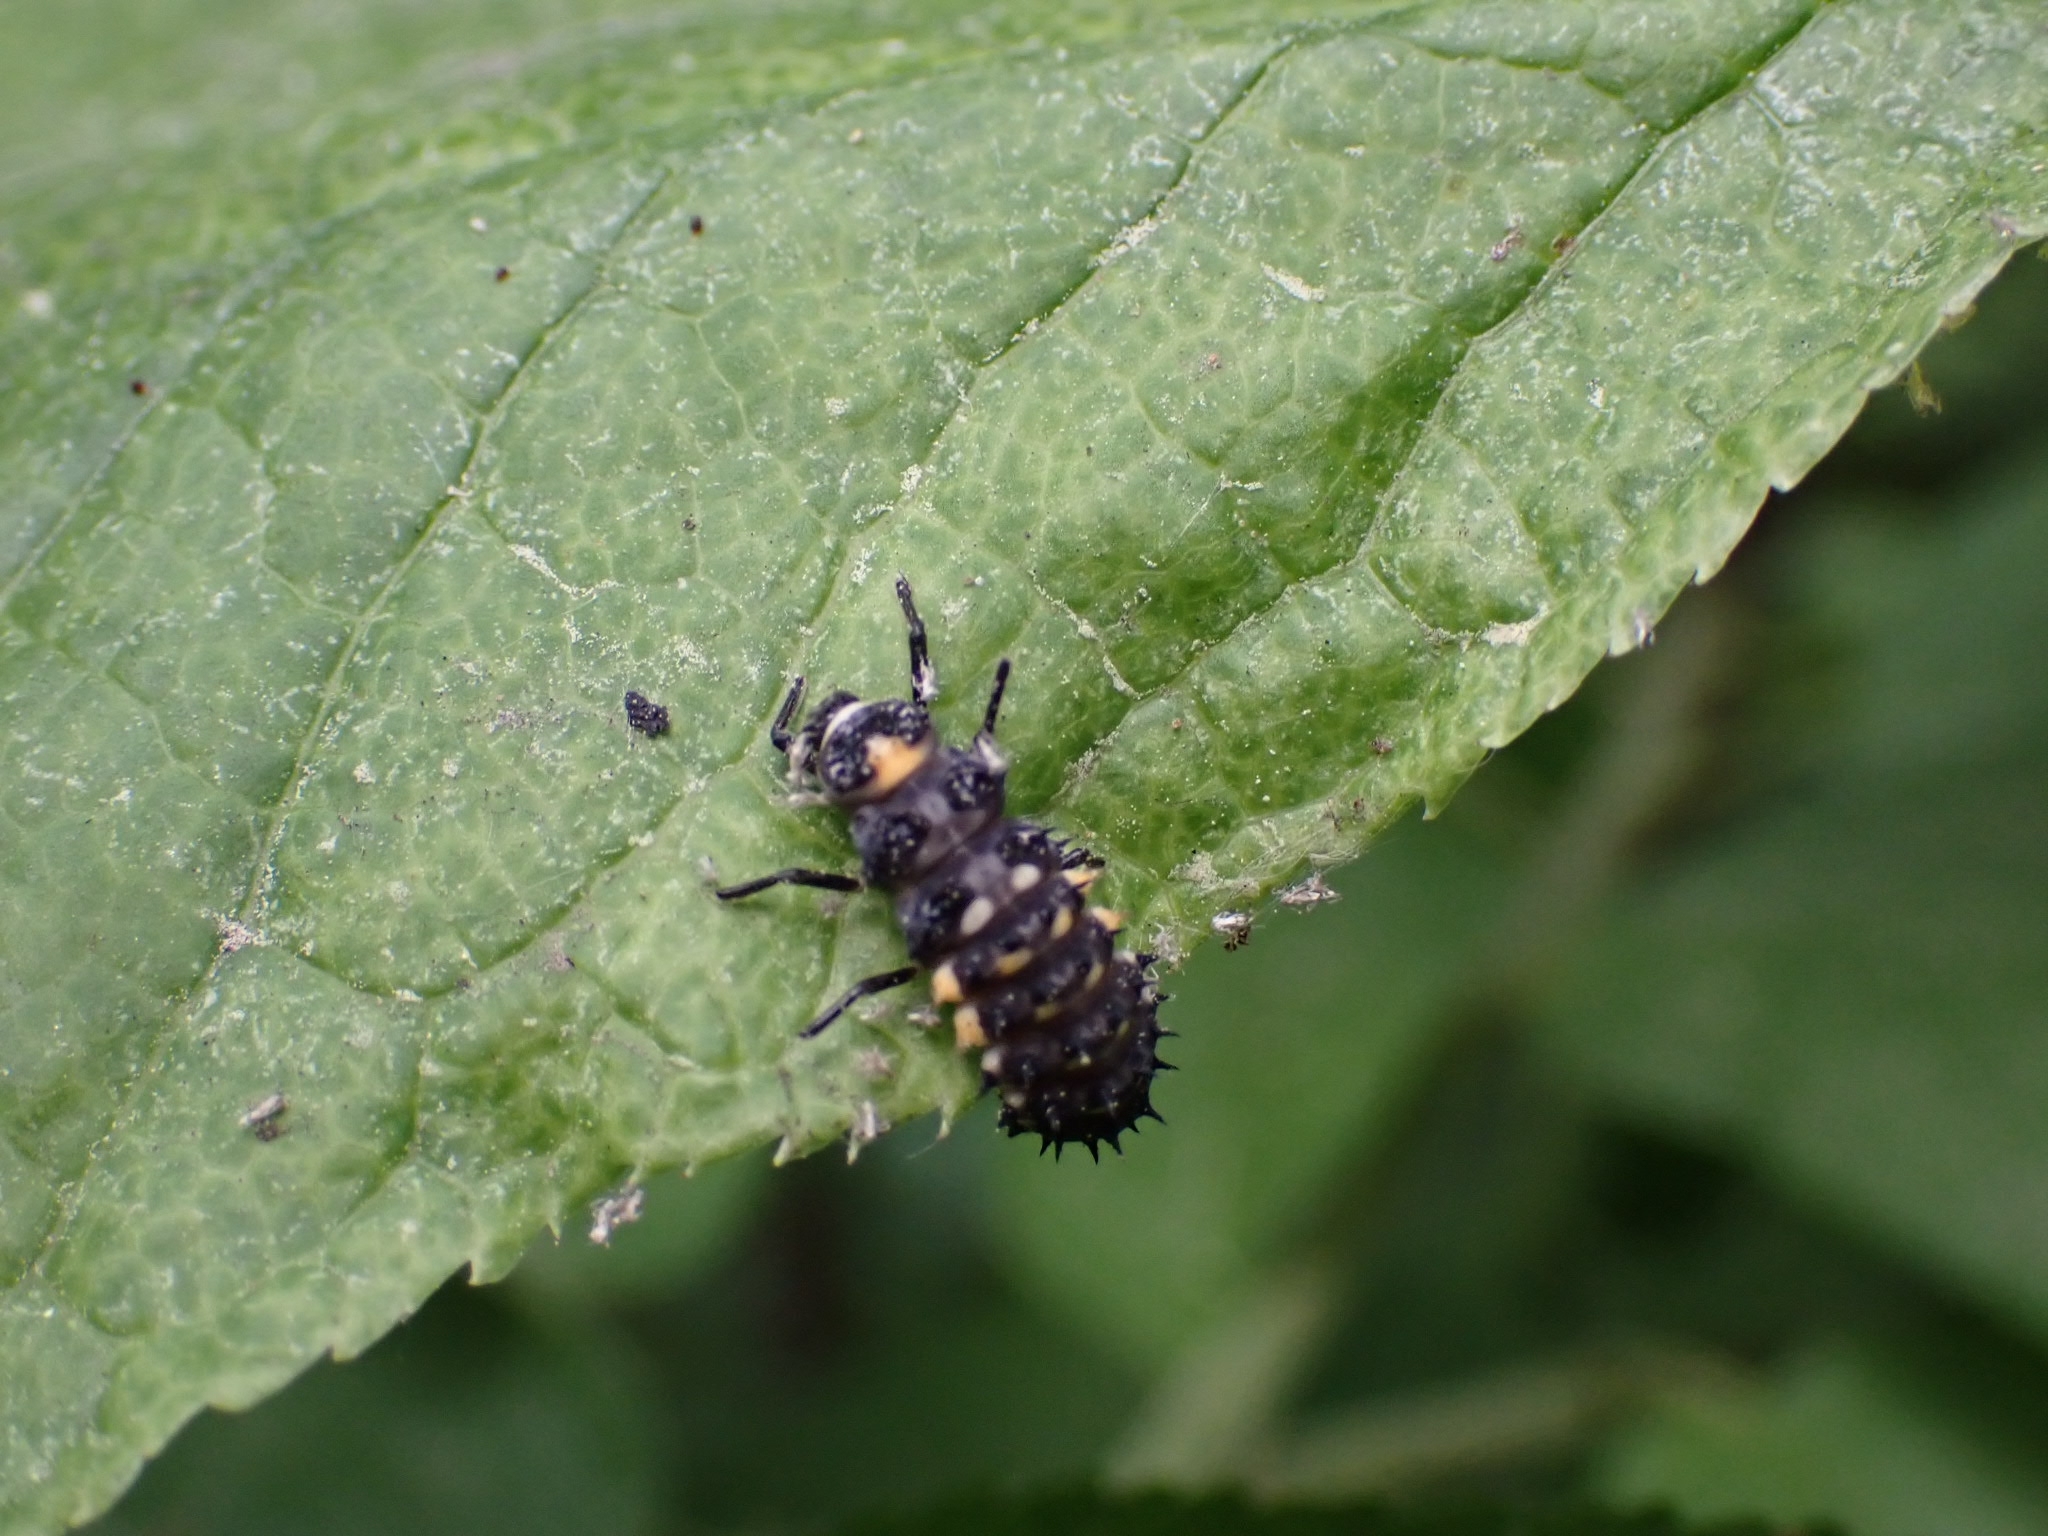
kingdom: Animalia
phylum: Arthropoda
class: Insecta
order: Coleoptera
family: Coccinellidae
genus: Anatis
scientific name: Anatis ocellata
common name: Eyed ladybird
